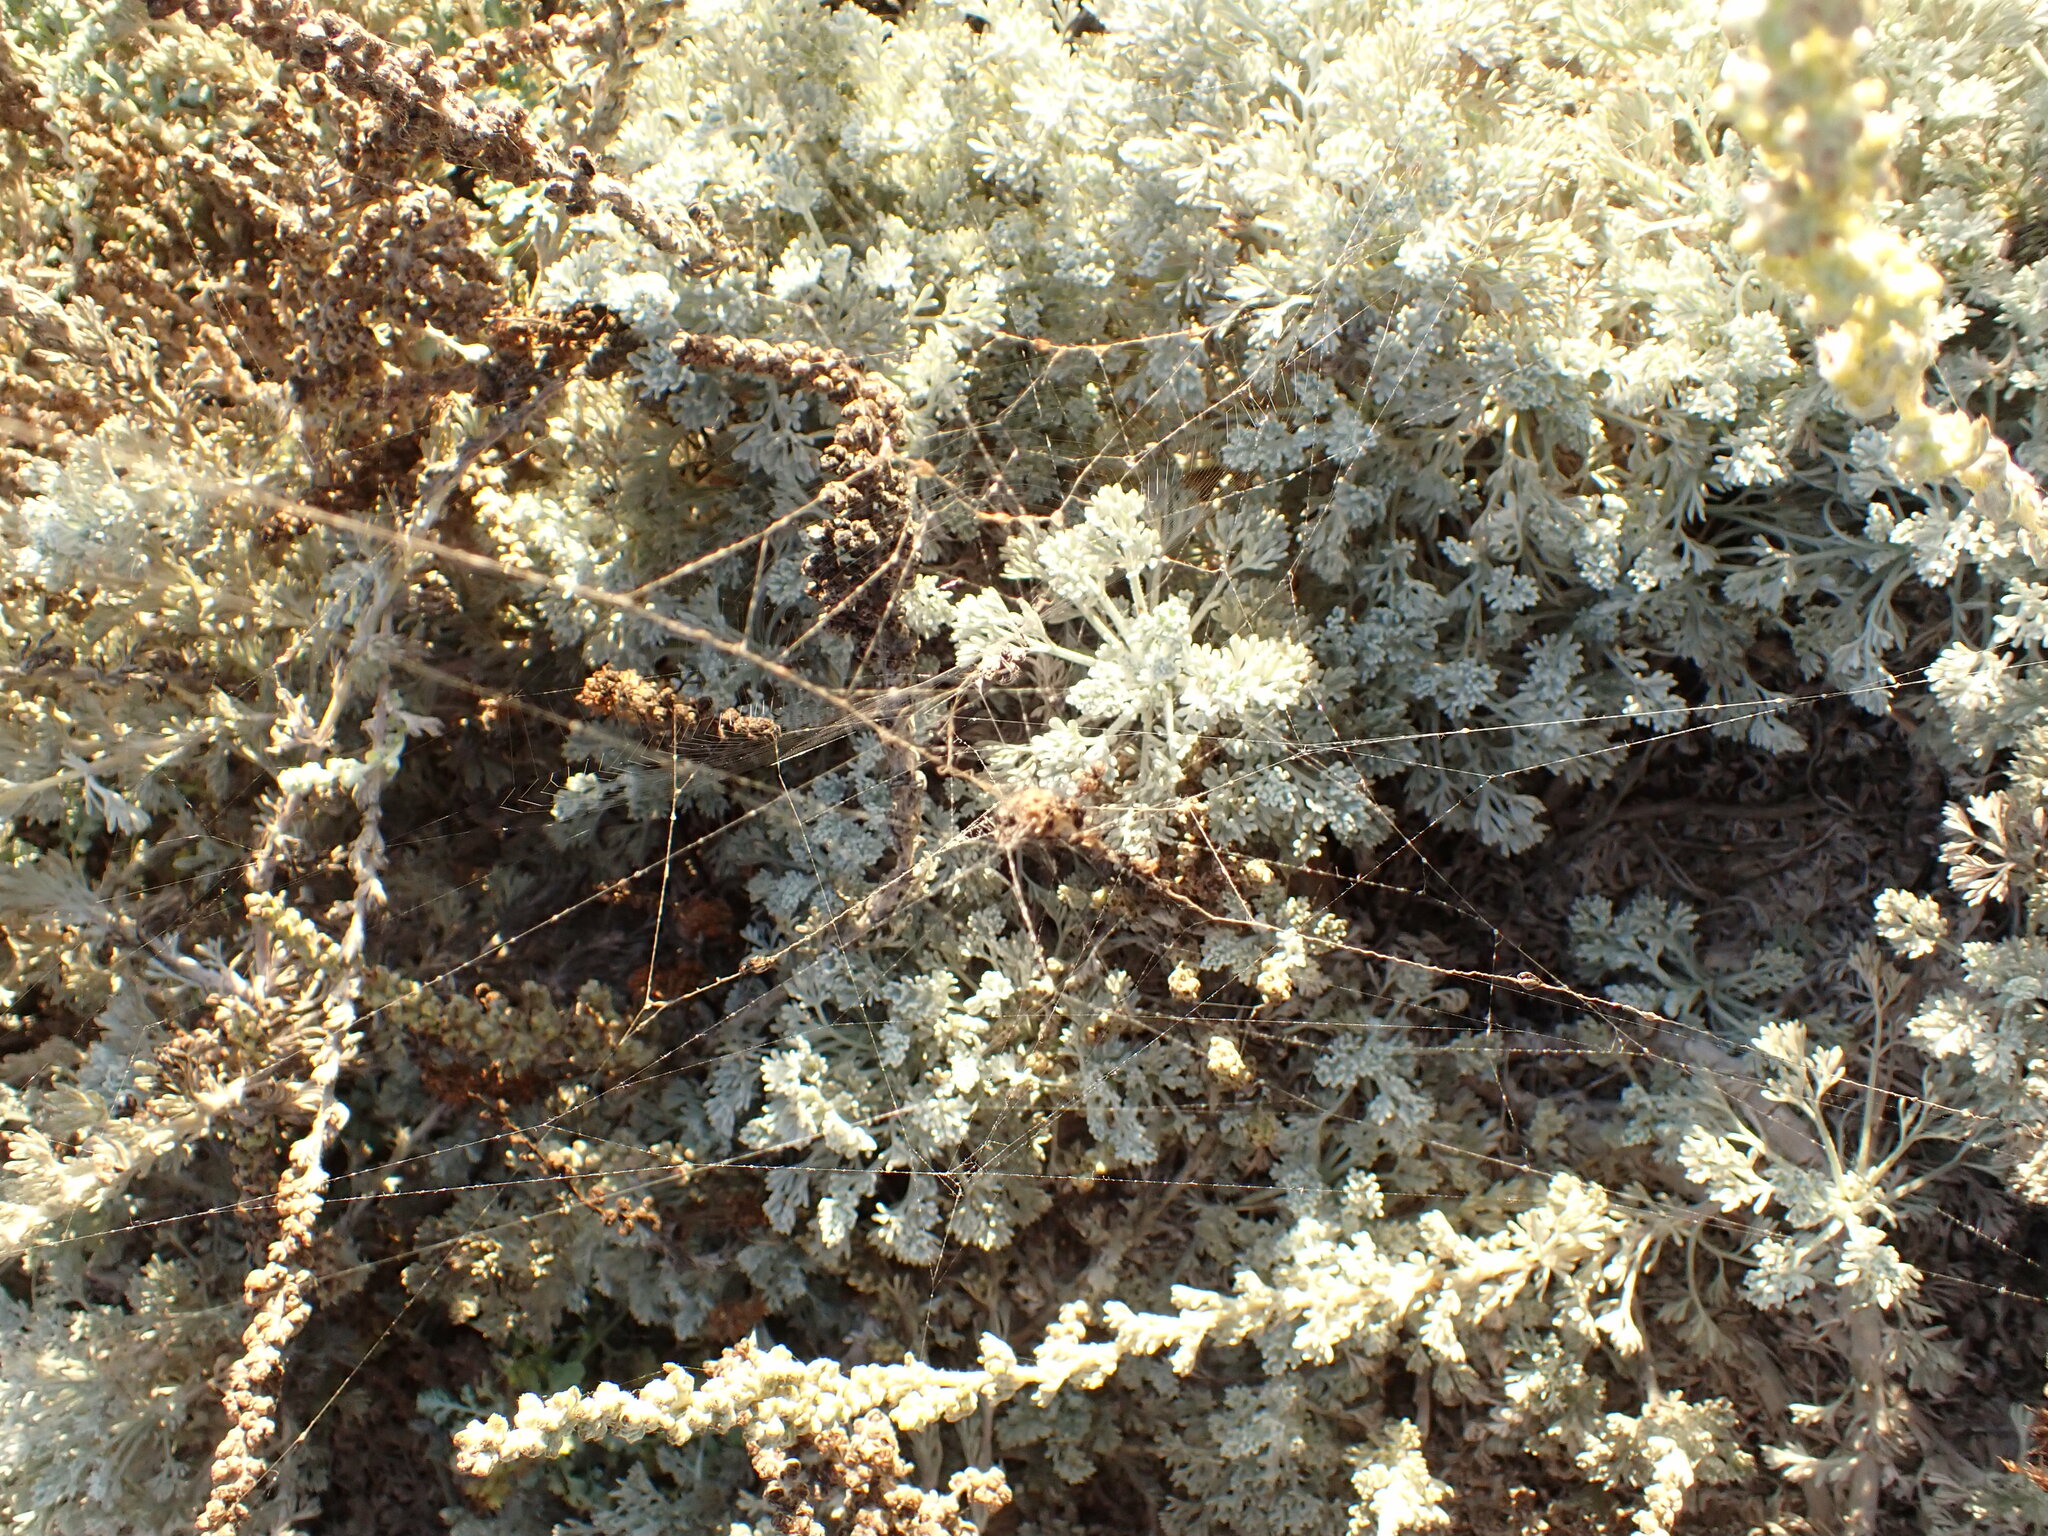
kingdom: Plantae
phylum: Tracheophyta
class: Magnoliopsida
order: Asterales
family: Asteraceae
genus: Artemisia
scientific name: Artemisia pycnocephala
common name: Coastal sagewort
